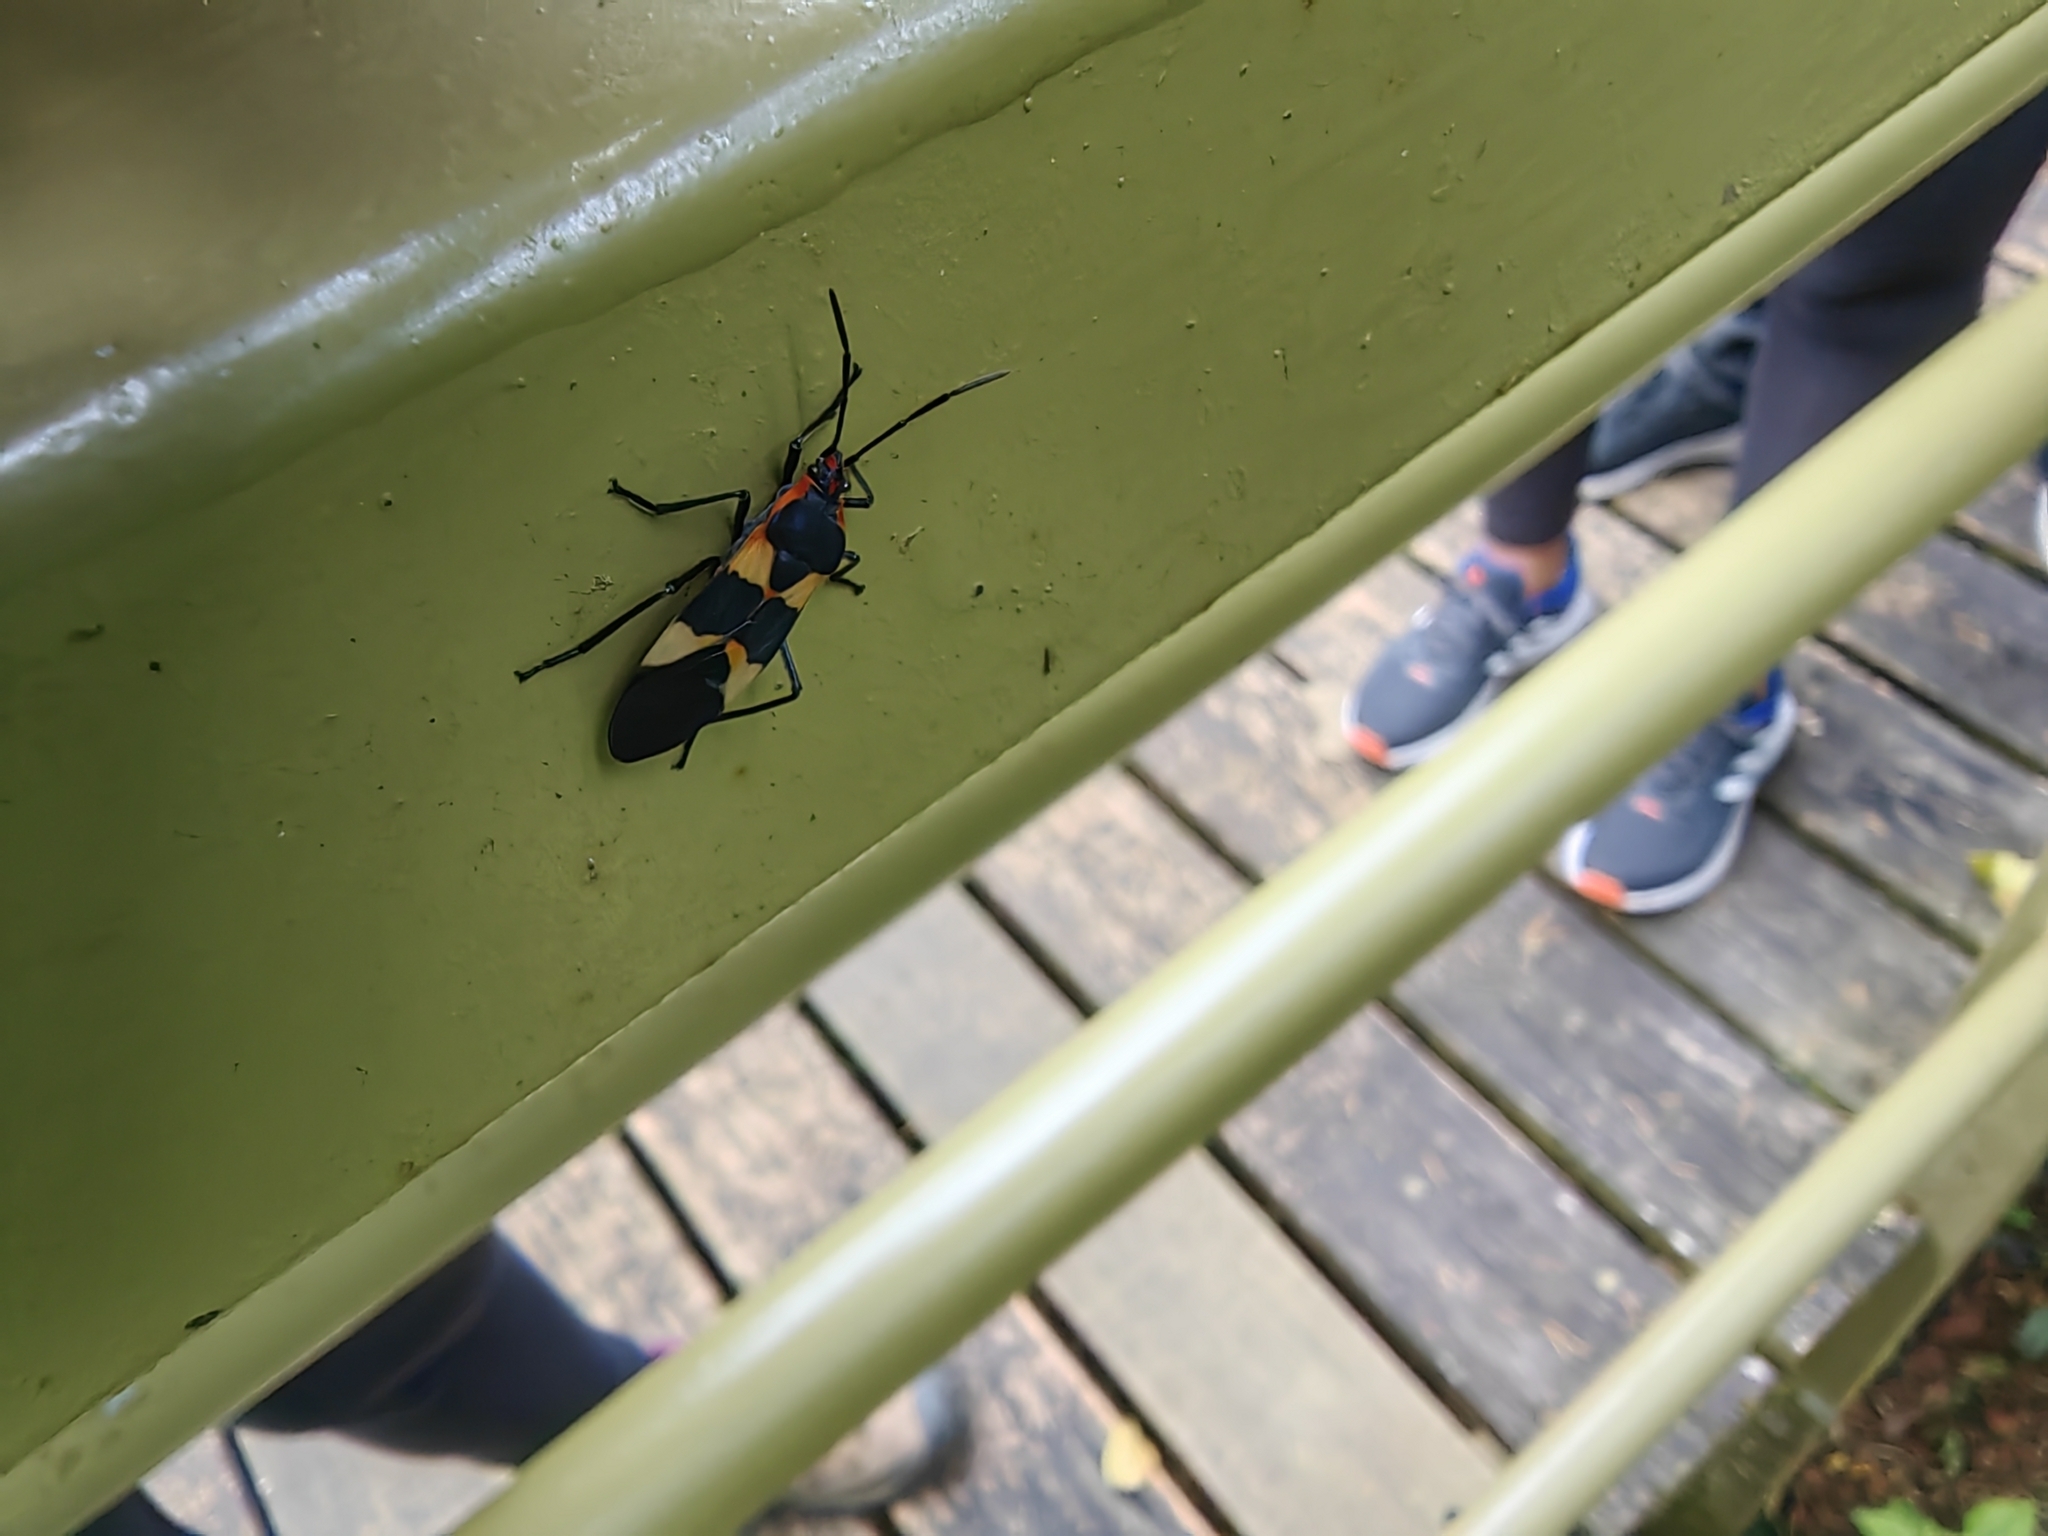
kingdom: Animalia
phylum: Arthropoda
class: Insecta
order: Hemiptera
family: Lygaeidae
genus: Oncopeltus
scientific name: Oncopeltus fasciatus
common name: Large milkweed bug
